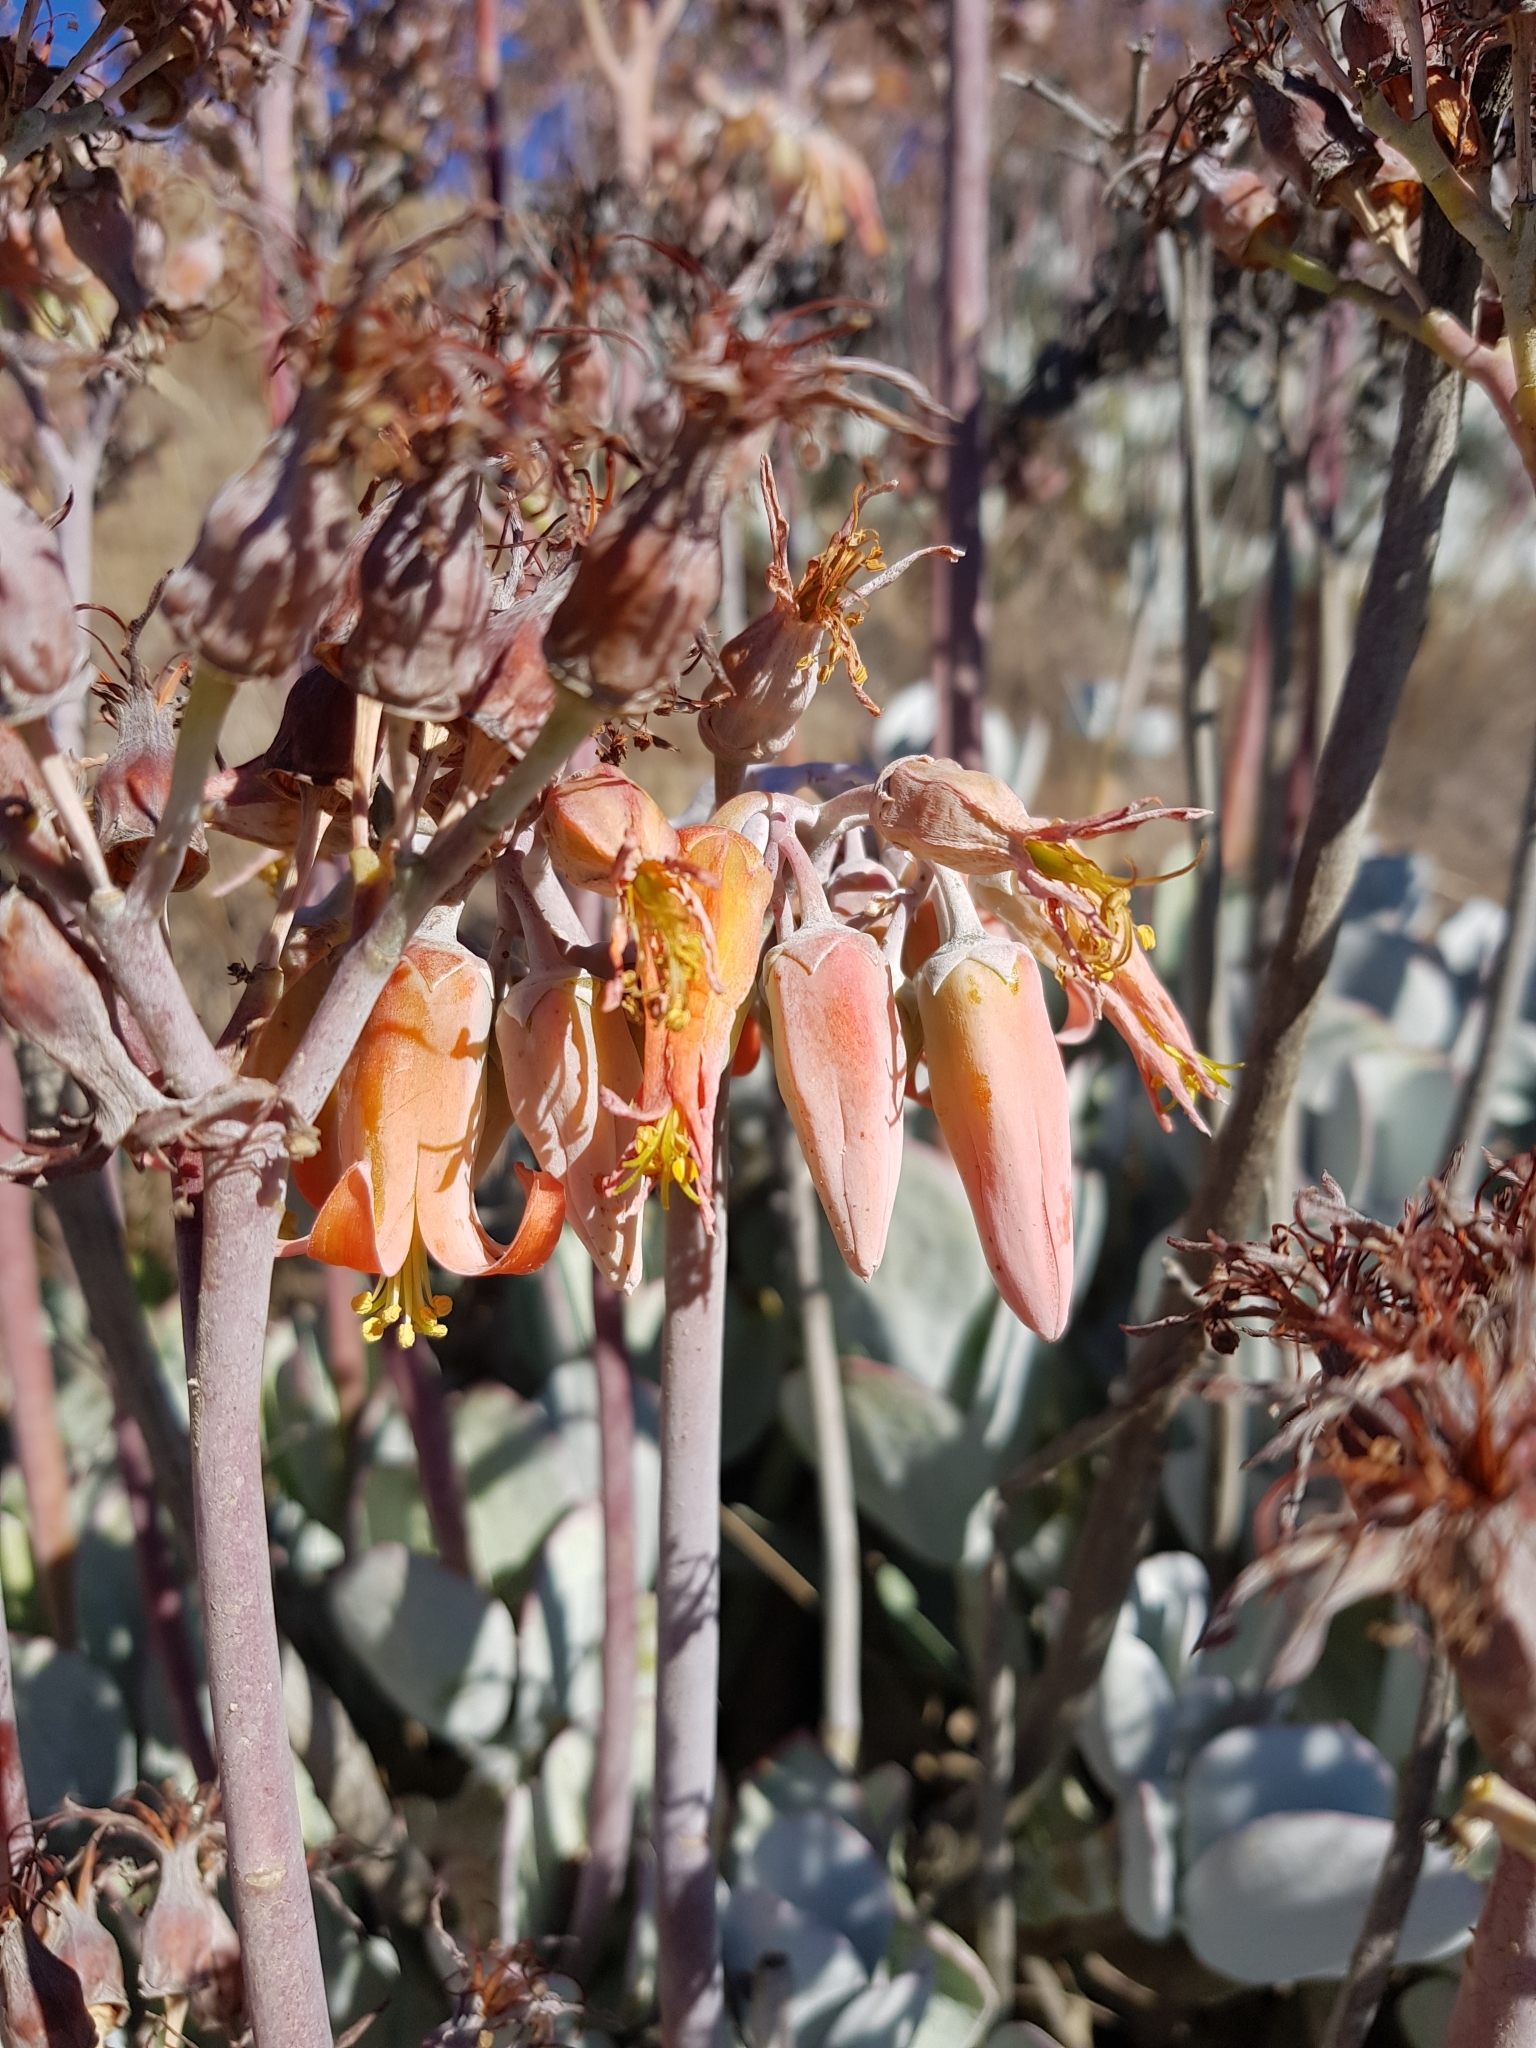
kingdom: Plantae
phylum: Tracheophyta
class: Magnoliopsida
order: Saxifragales
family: Crassulaceae
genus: Cotyledon
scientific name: Cotyledon orbiculata
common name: Pig's ear
